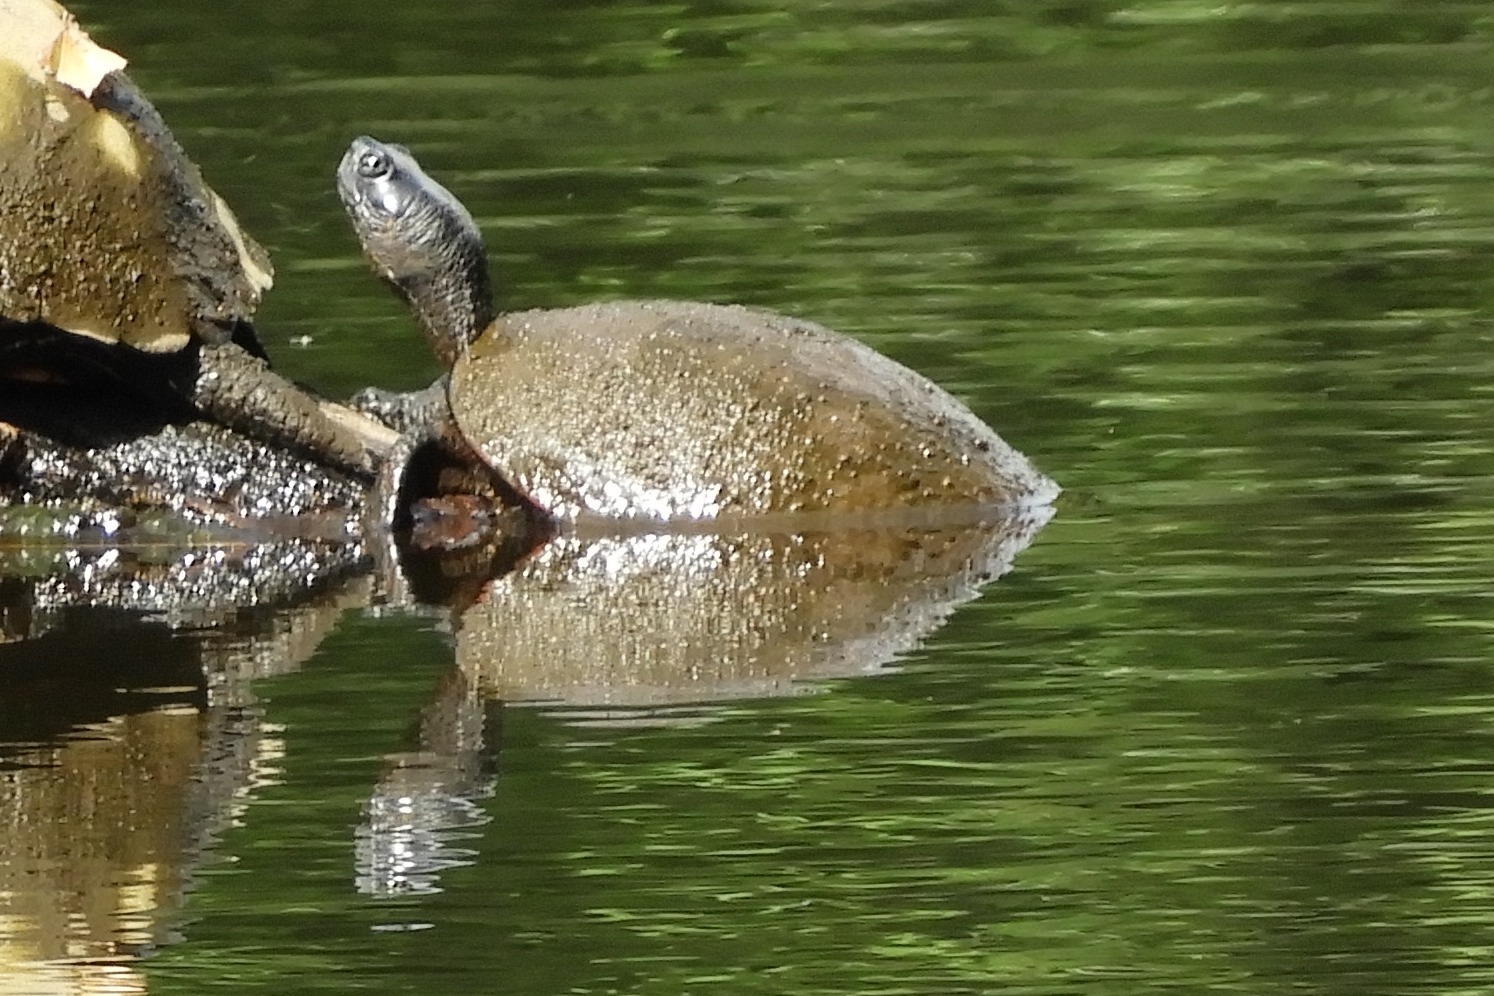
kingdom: Animalia
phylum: Chordata
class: Testudines
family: Emydidae
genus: Pseudemys
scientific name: Pseudemys rubriventris
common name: American red-bellied turtle
